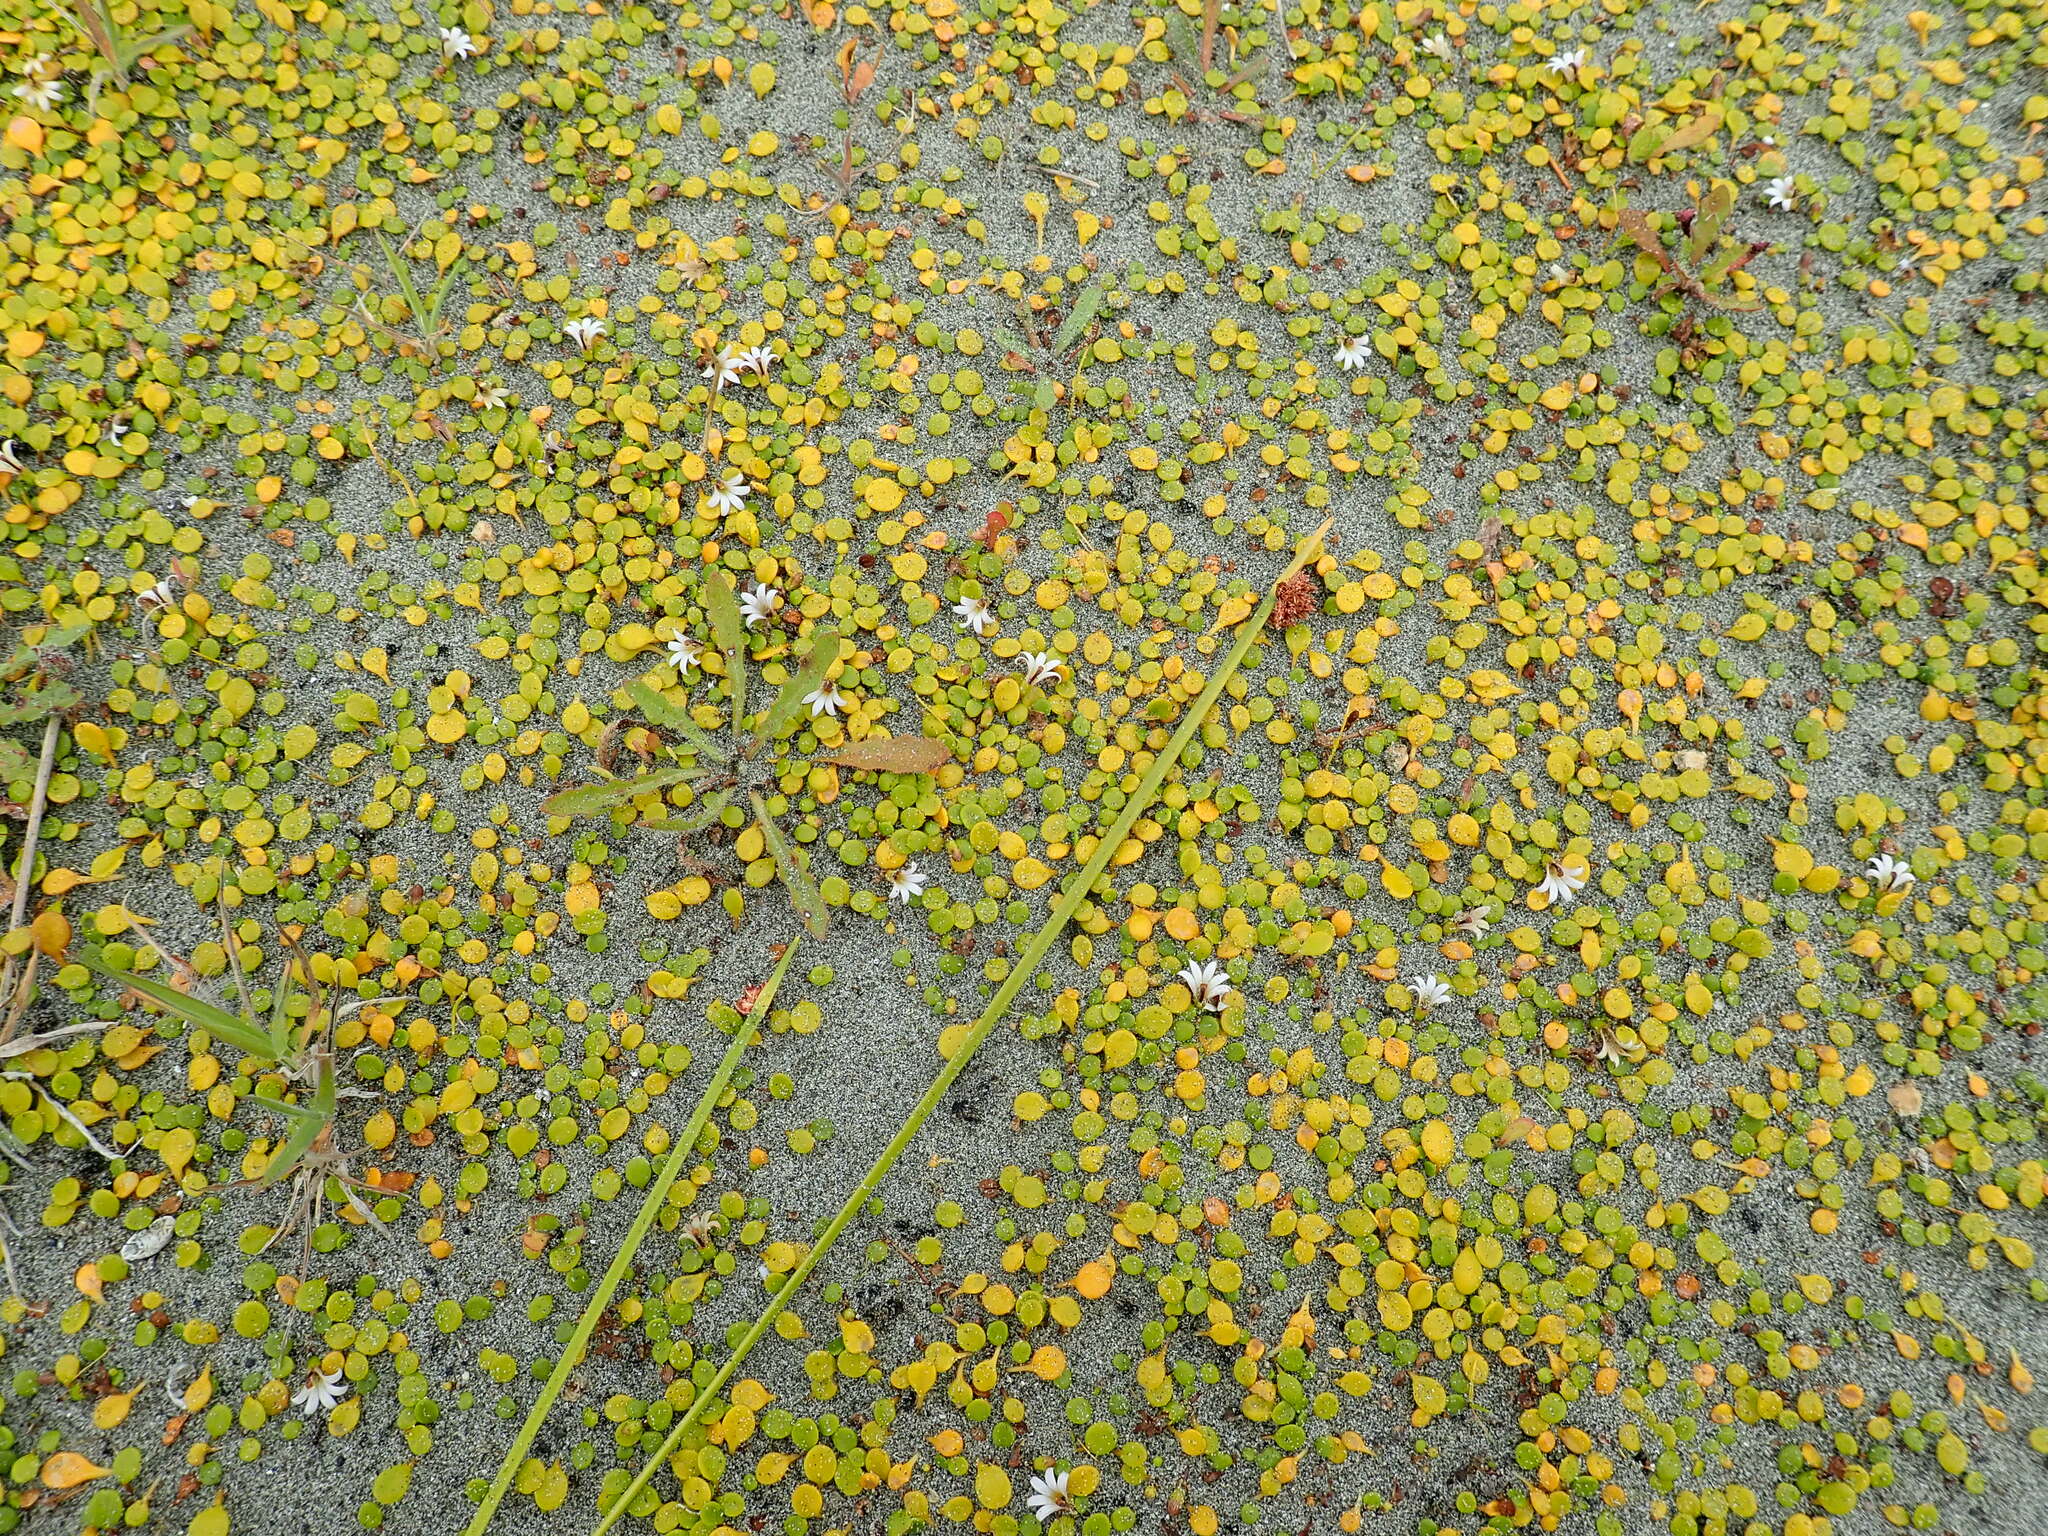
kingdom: Plantae
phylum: Tracheophyta
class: Magnoliopsida
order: Asterales
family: Goodeniaceae
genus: Goodenia
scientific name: Goodenia heenanii
